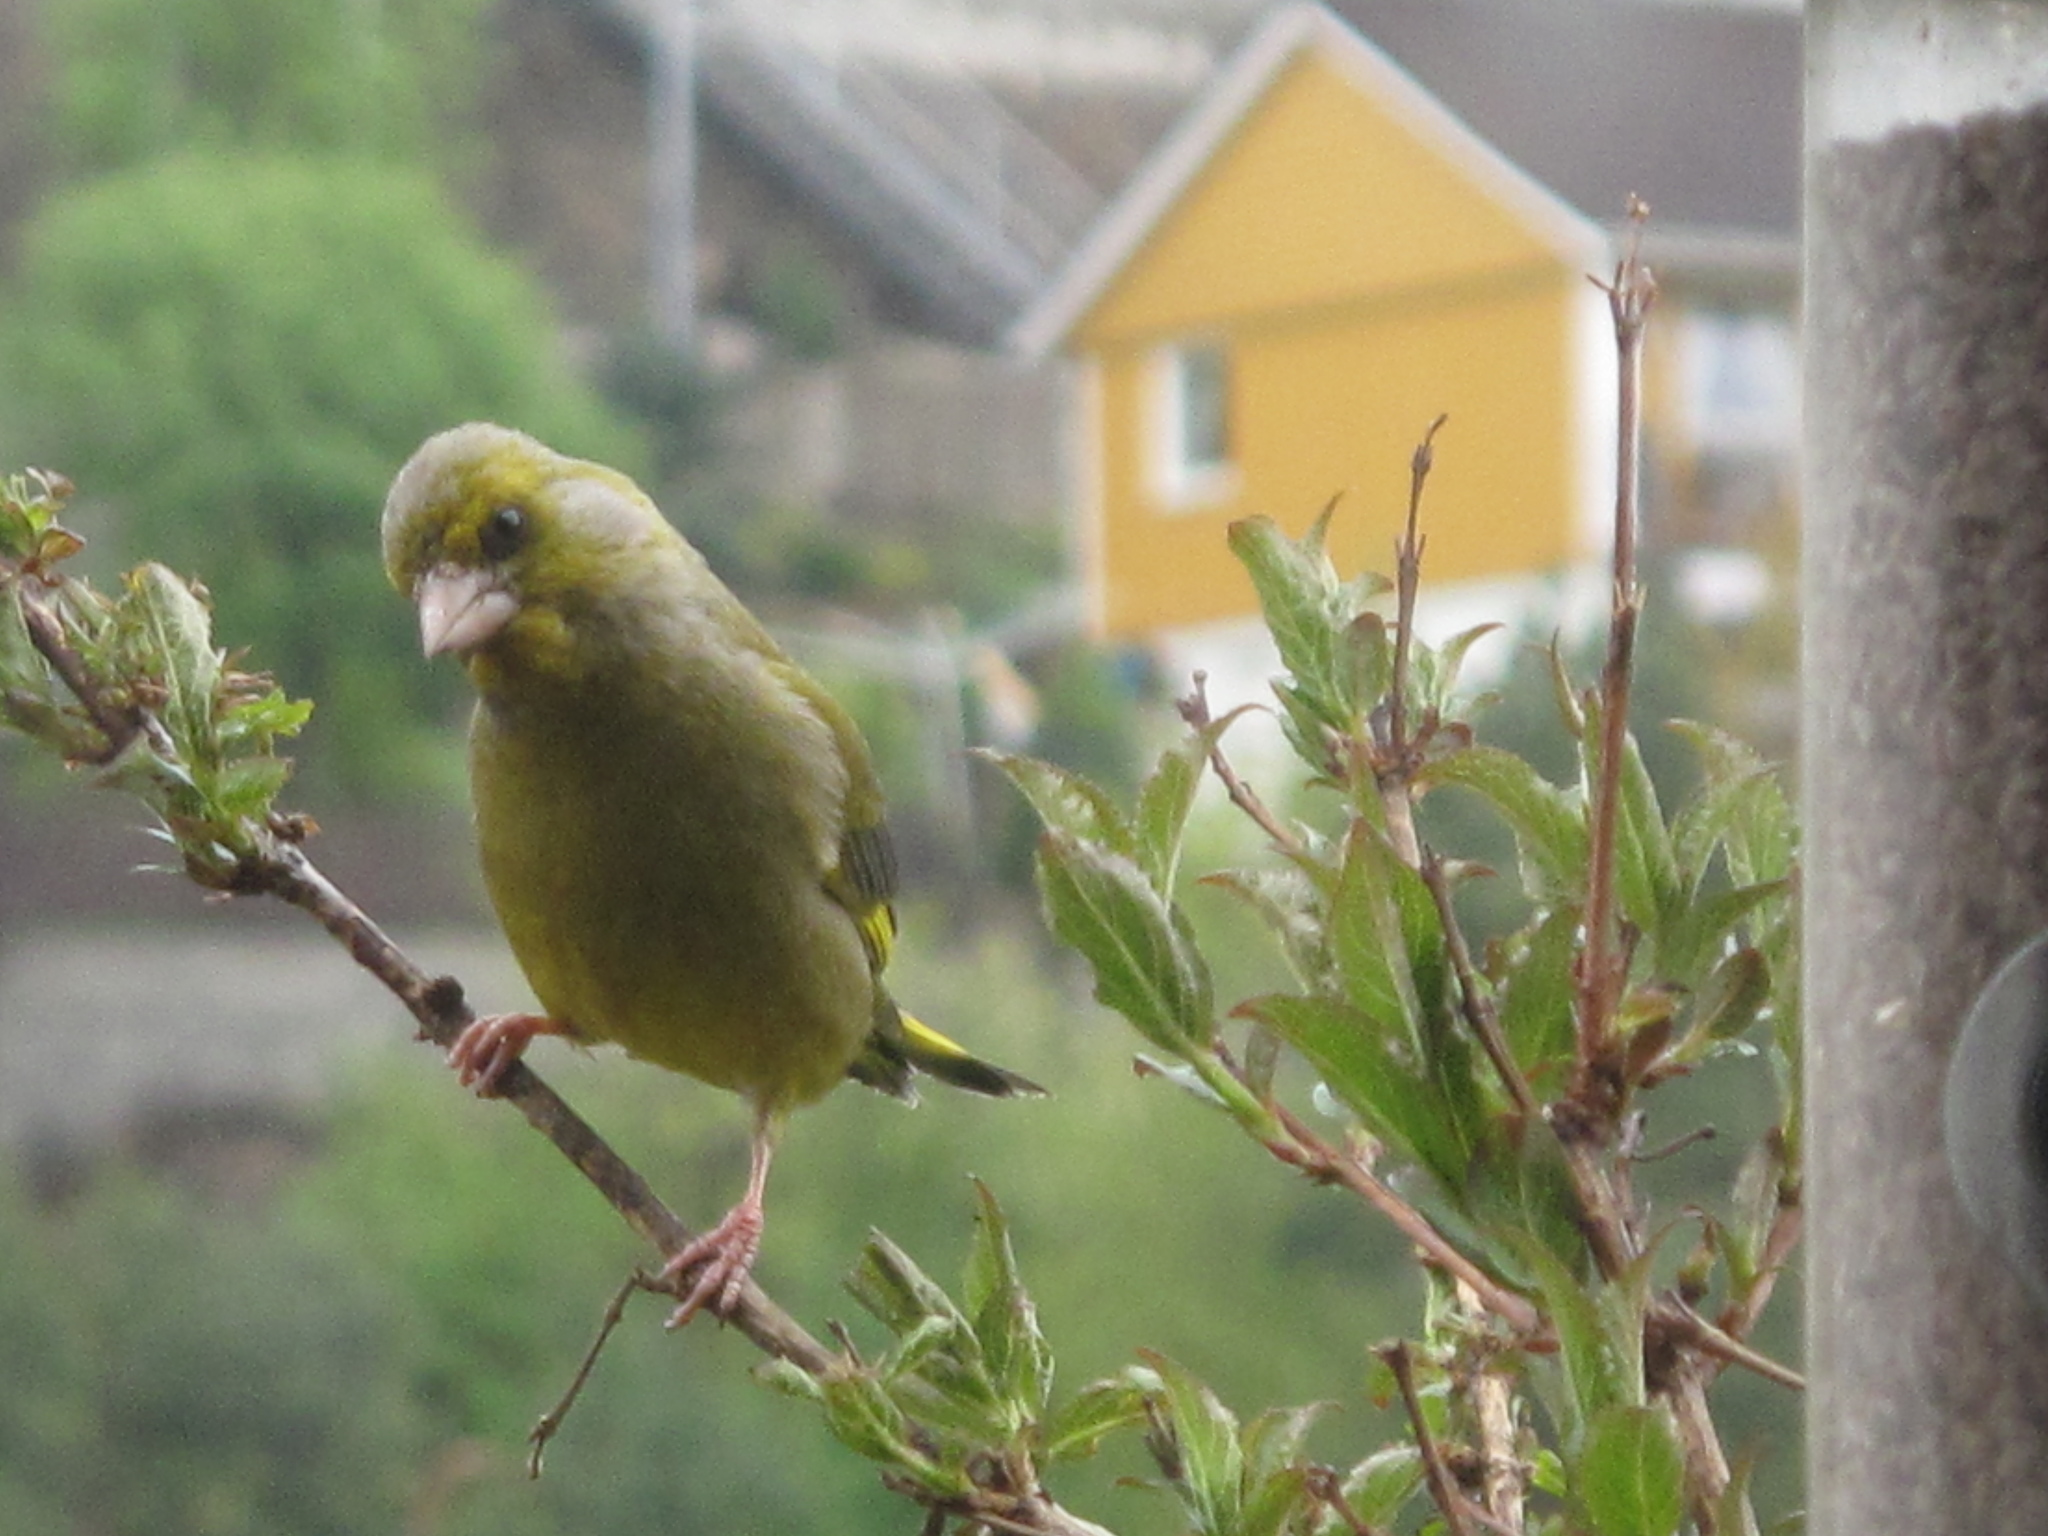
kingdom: Plantae
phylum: Tracheophyta
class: Liliopsida
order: Poales
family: Poaceae
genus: Chloris
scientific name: Chloris chloris
